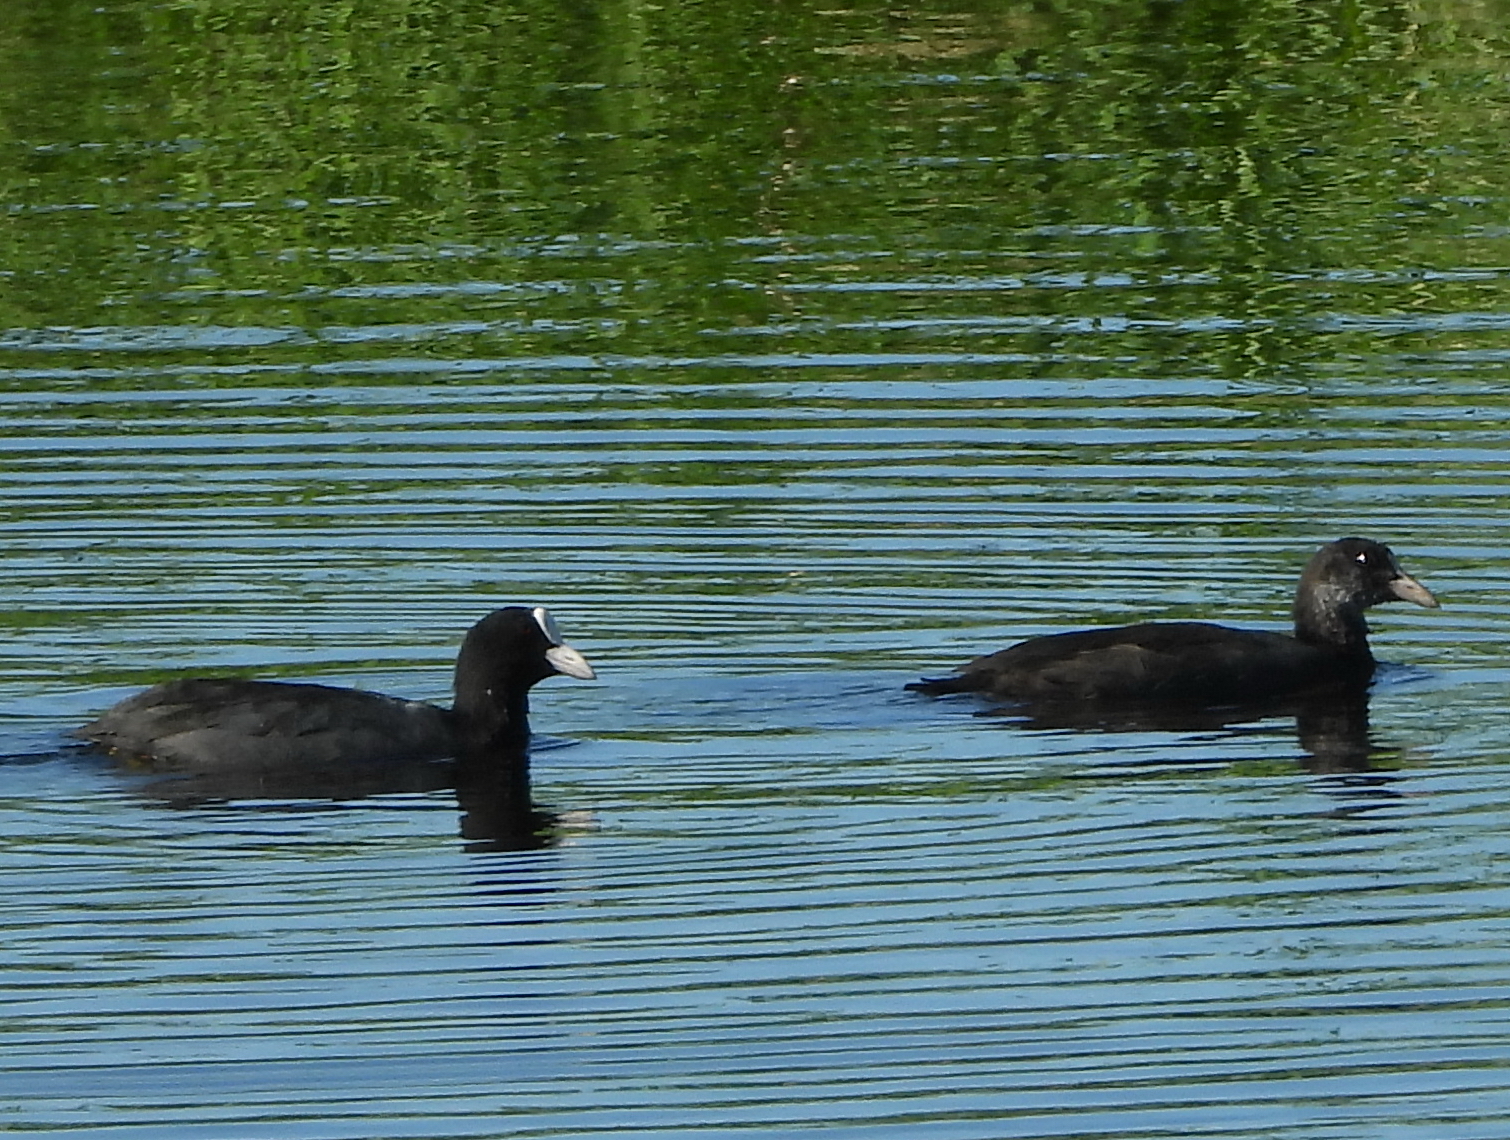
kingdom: Animalia
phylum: Chordata
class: Aves
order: Gruiformes
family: Rallidae
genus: Fulica
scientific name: Fulica atra
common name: Eurasian coot
